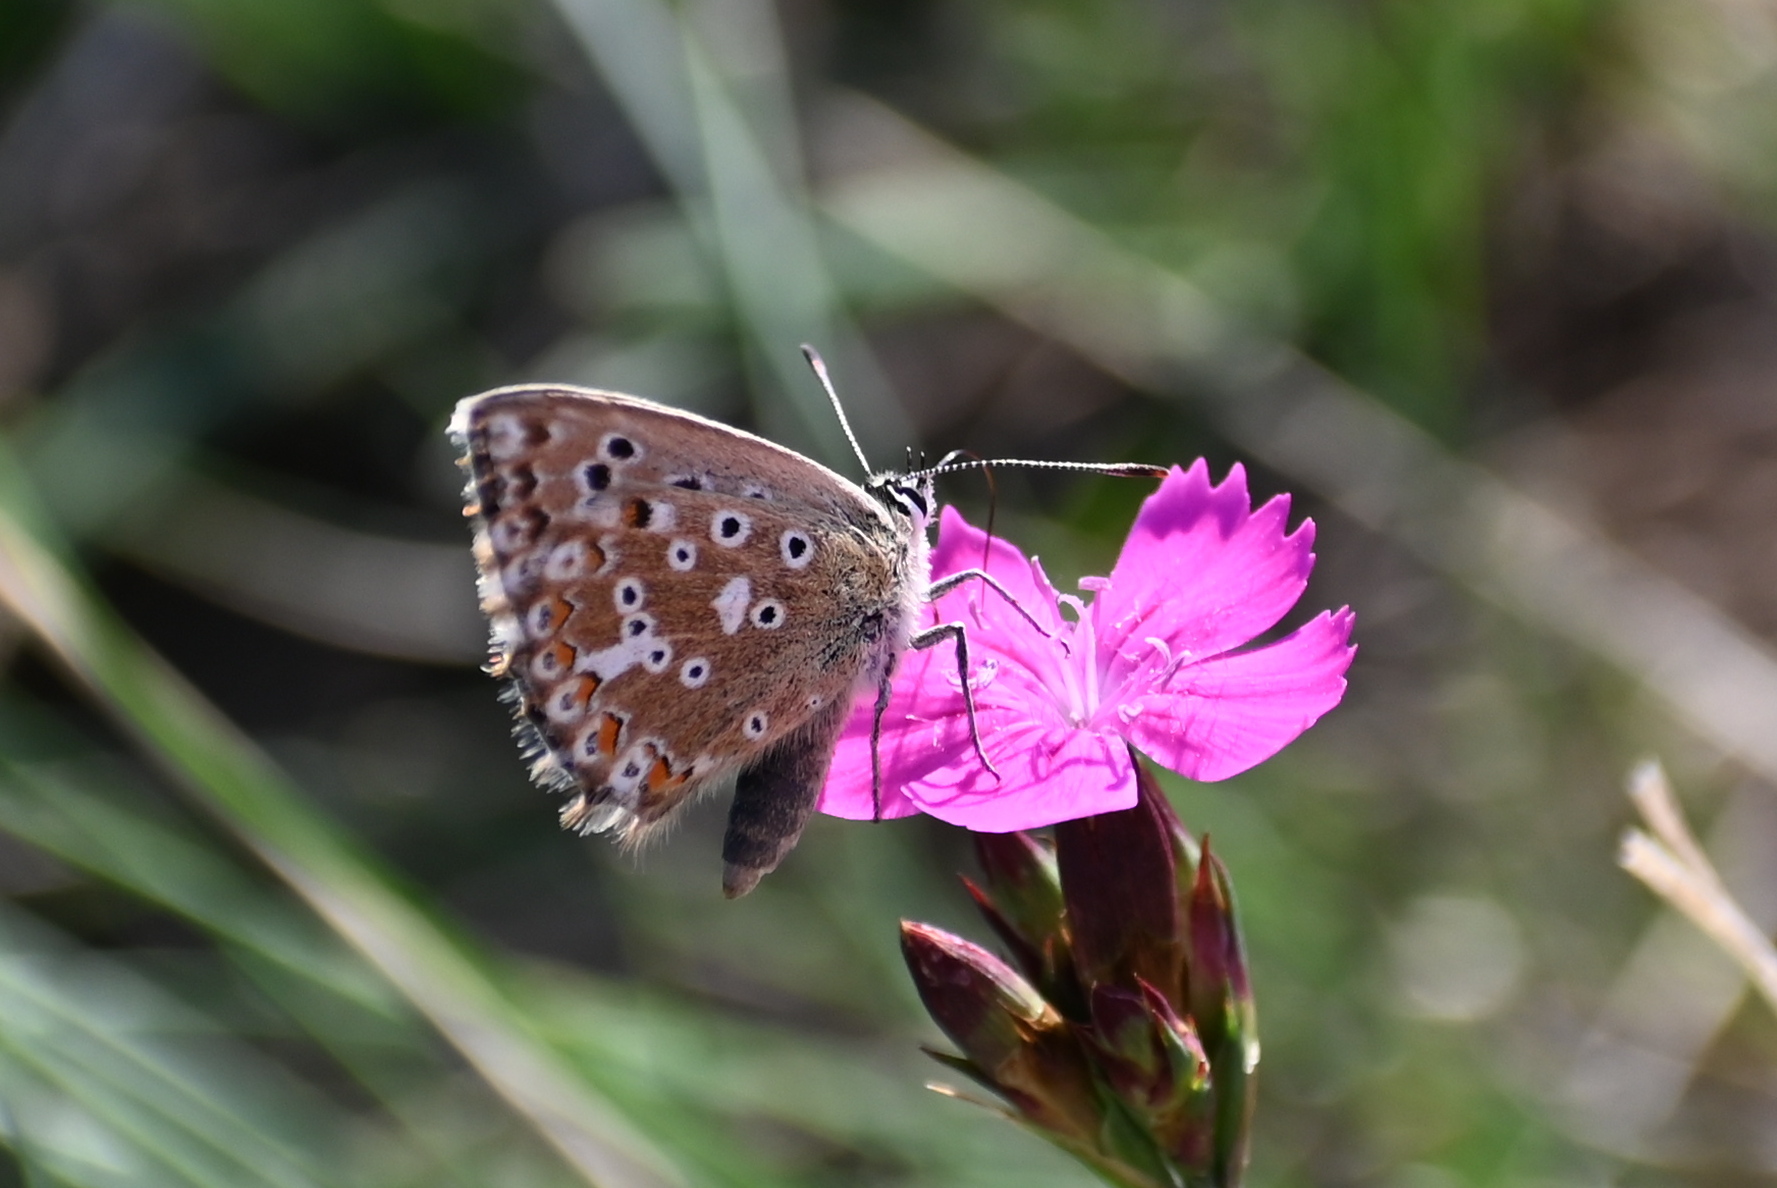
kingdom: Animalia
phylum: Arthropoda
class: Insecta
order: Lepidoptera
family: Lycaenidae
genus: Lysandra
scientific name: Lysandra coridon
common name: Chalkhill blue
